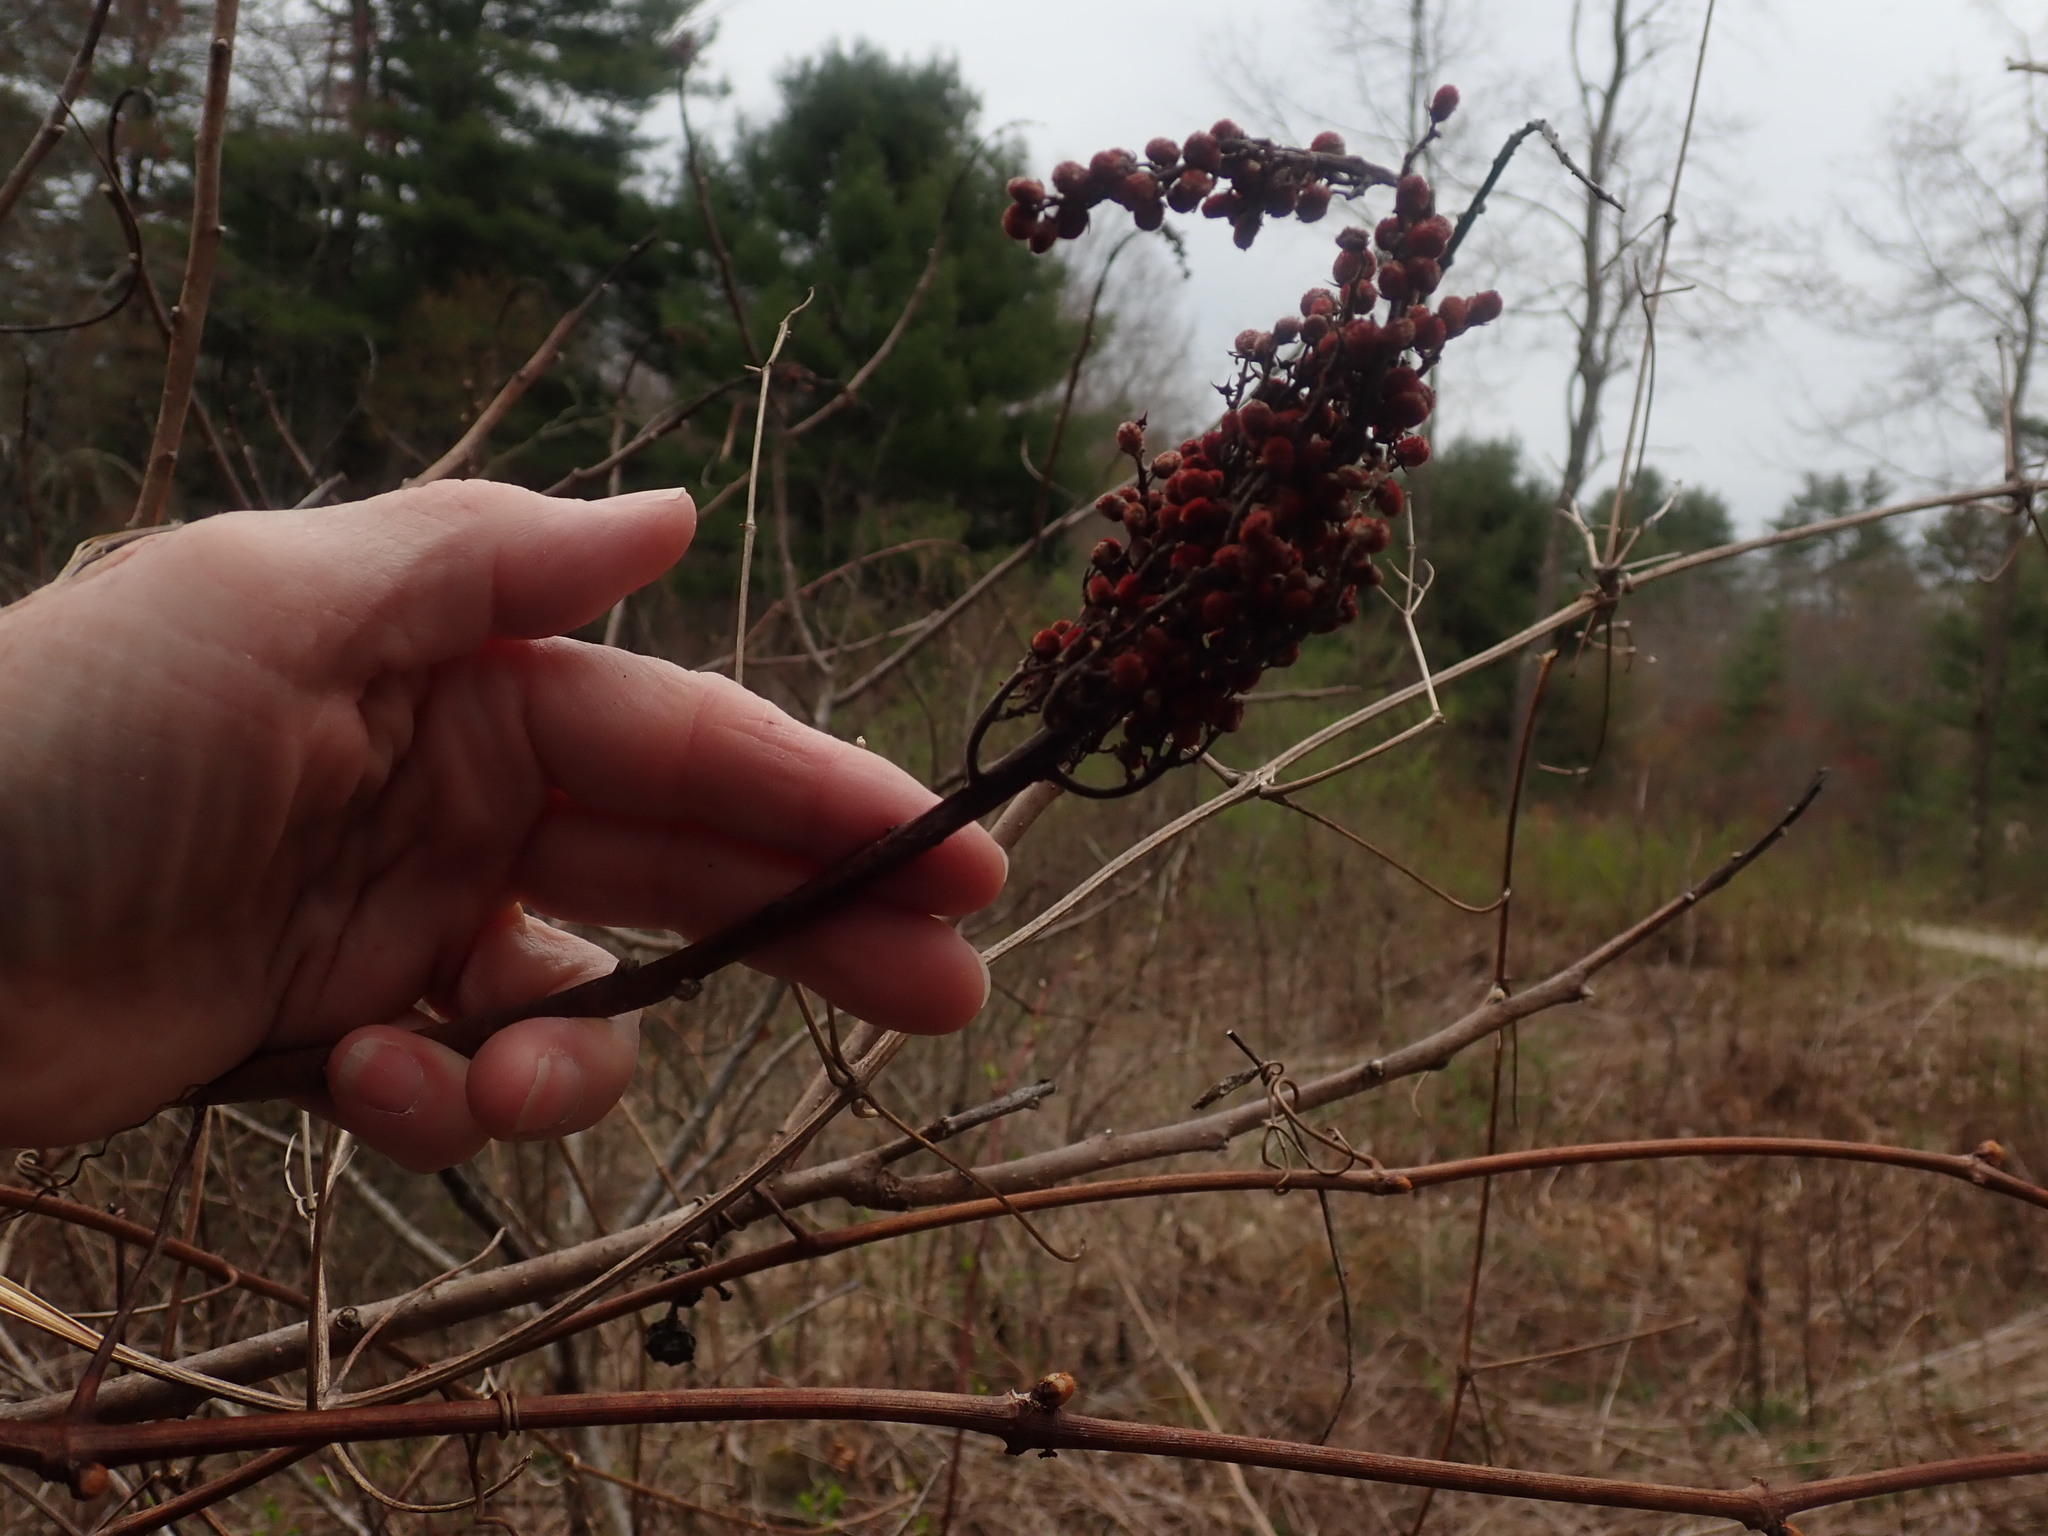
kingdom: Plantae
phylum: Tracheophyta
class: Magnoliopsida
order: Sapindales
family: Anacardiaceae
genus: Rhus
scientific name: Rhus glabra
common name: Scarlet sumac
